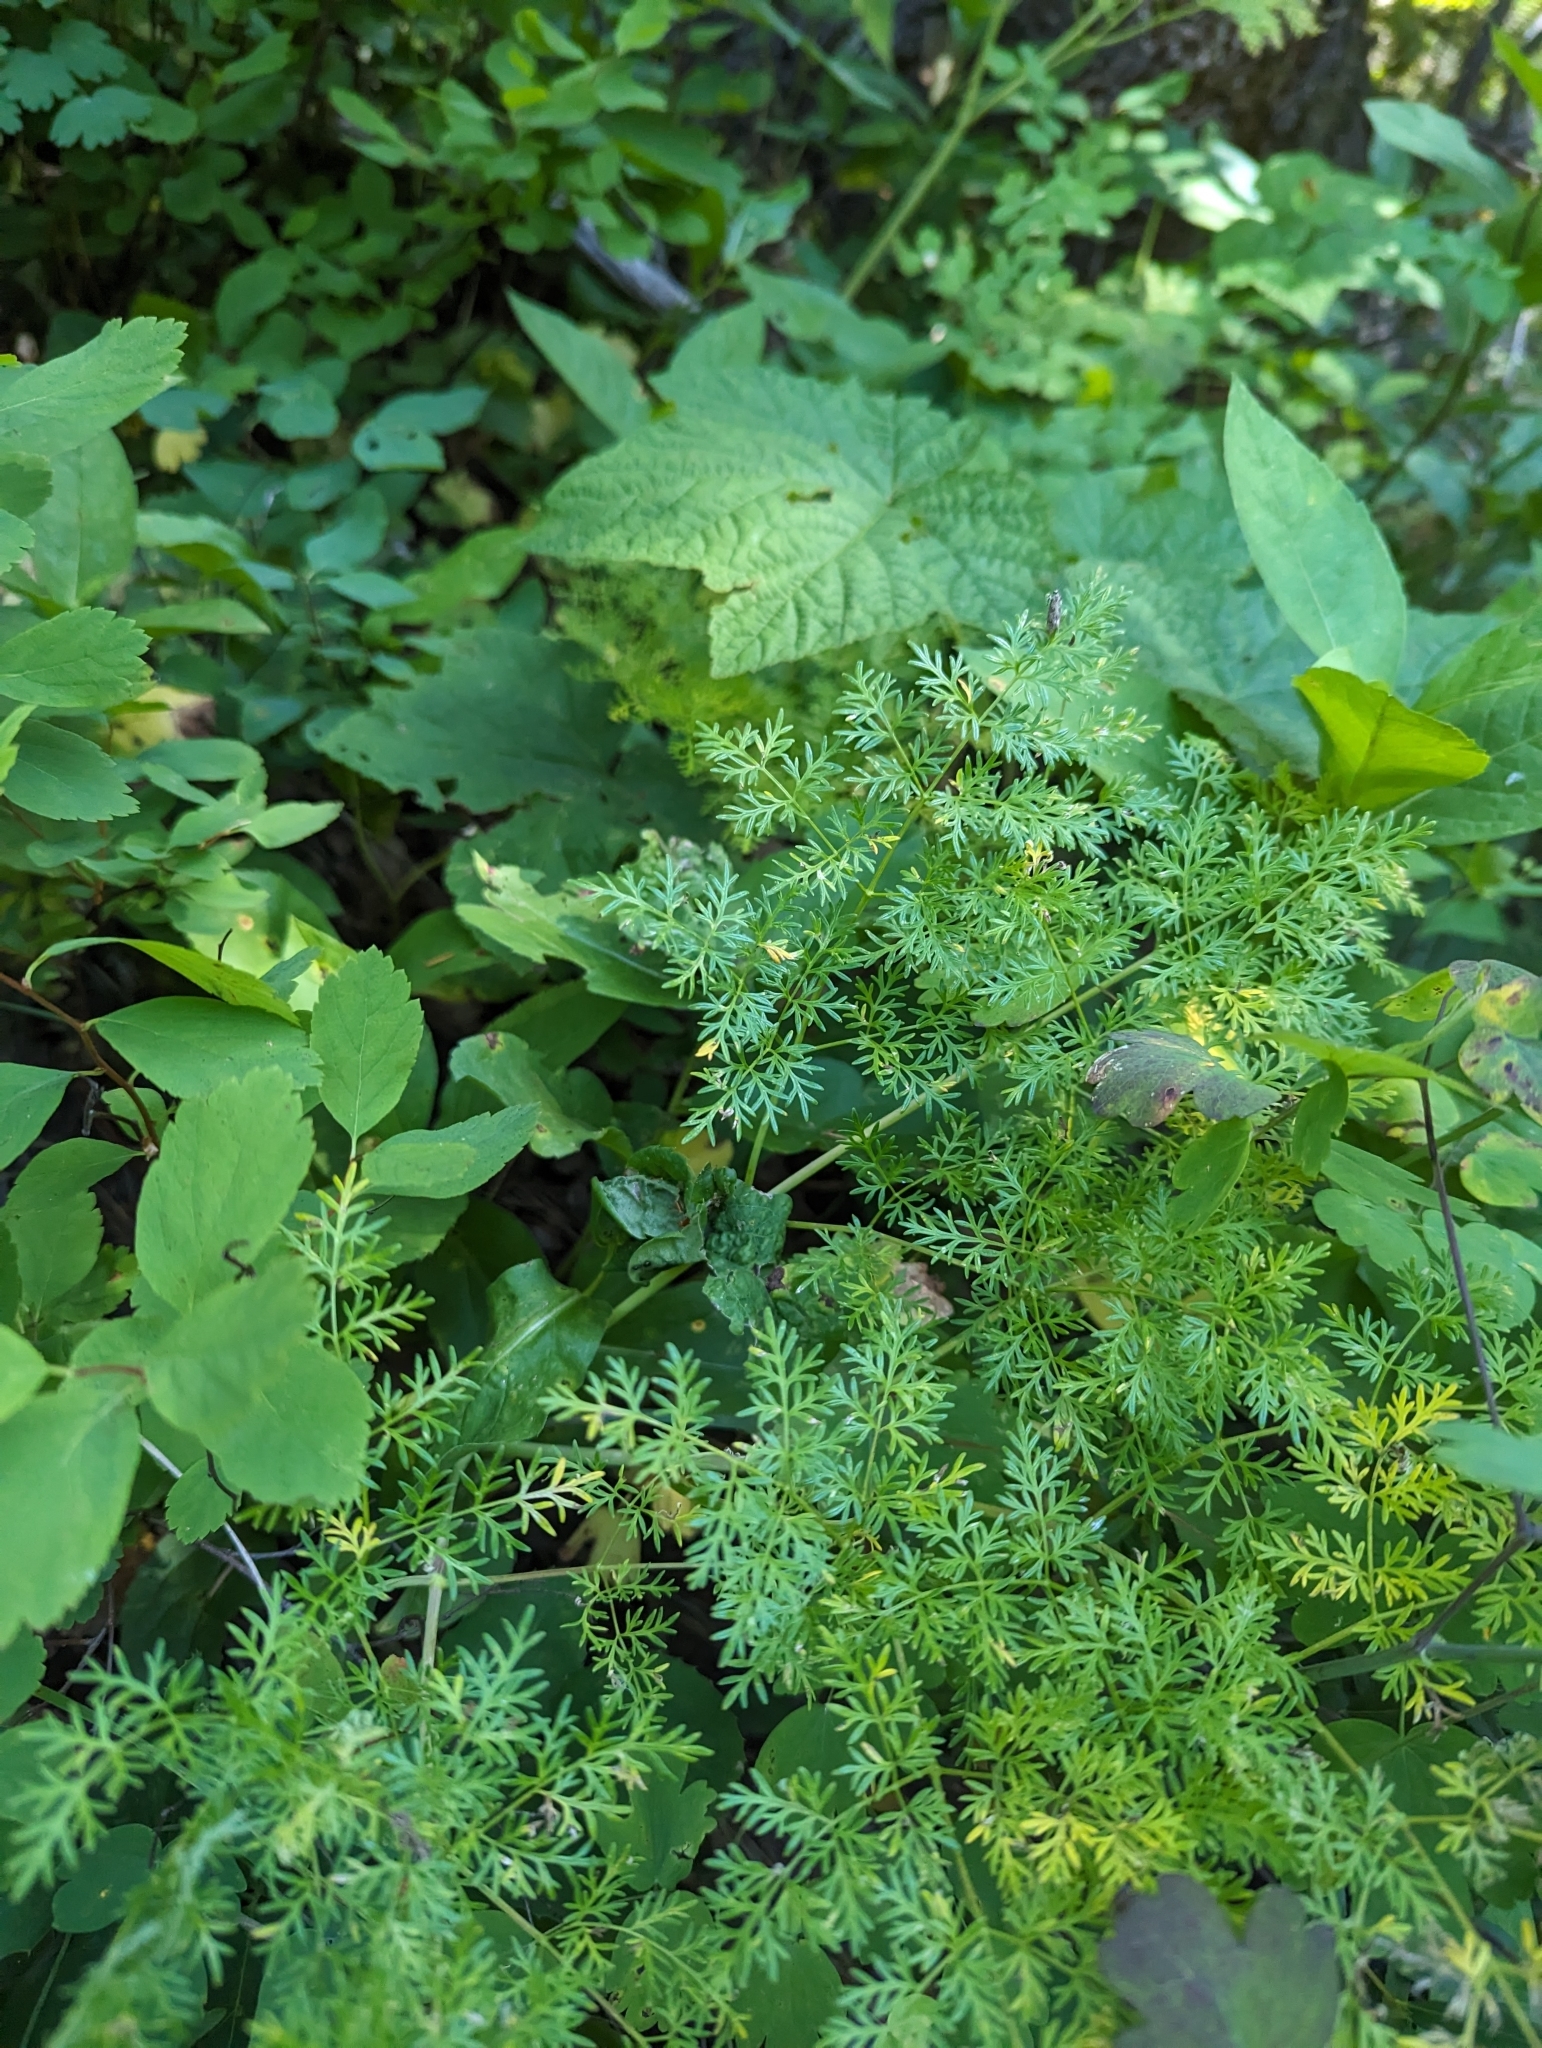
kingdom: Plantae
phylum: Tracheophyta
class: Magnoliopsida
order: Apiales
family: Apiaceae
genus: Lomatium
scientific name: Lomatium multifidum
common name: Carrot-leaved biscuitroot
